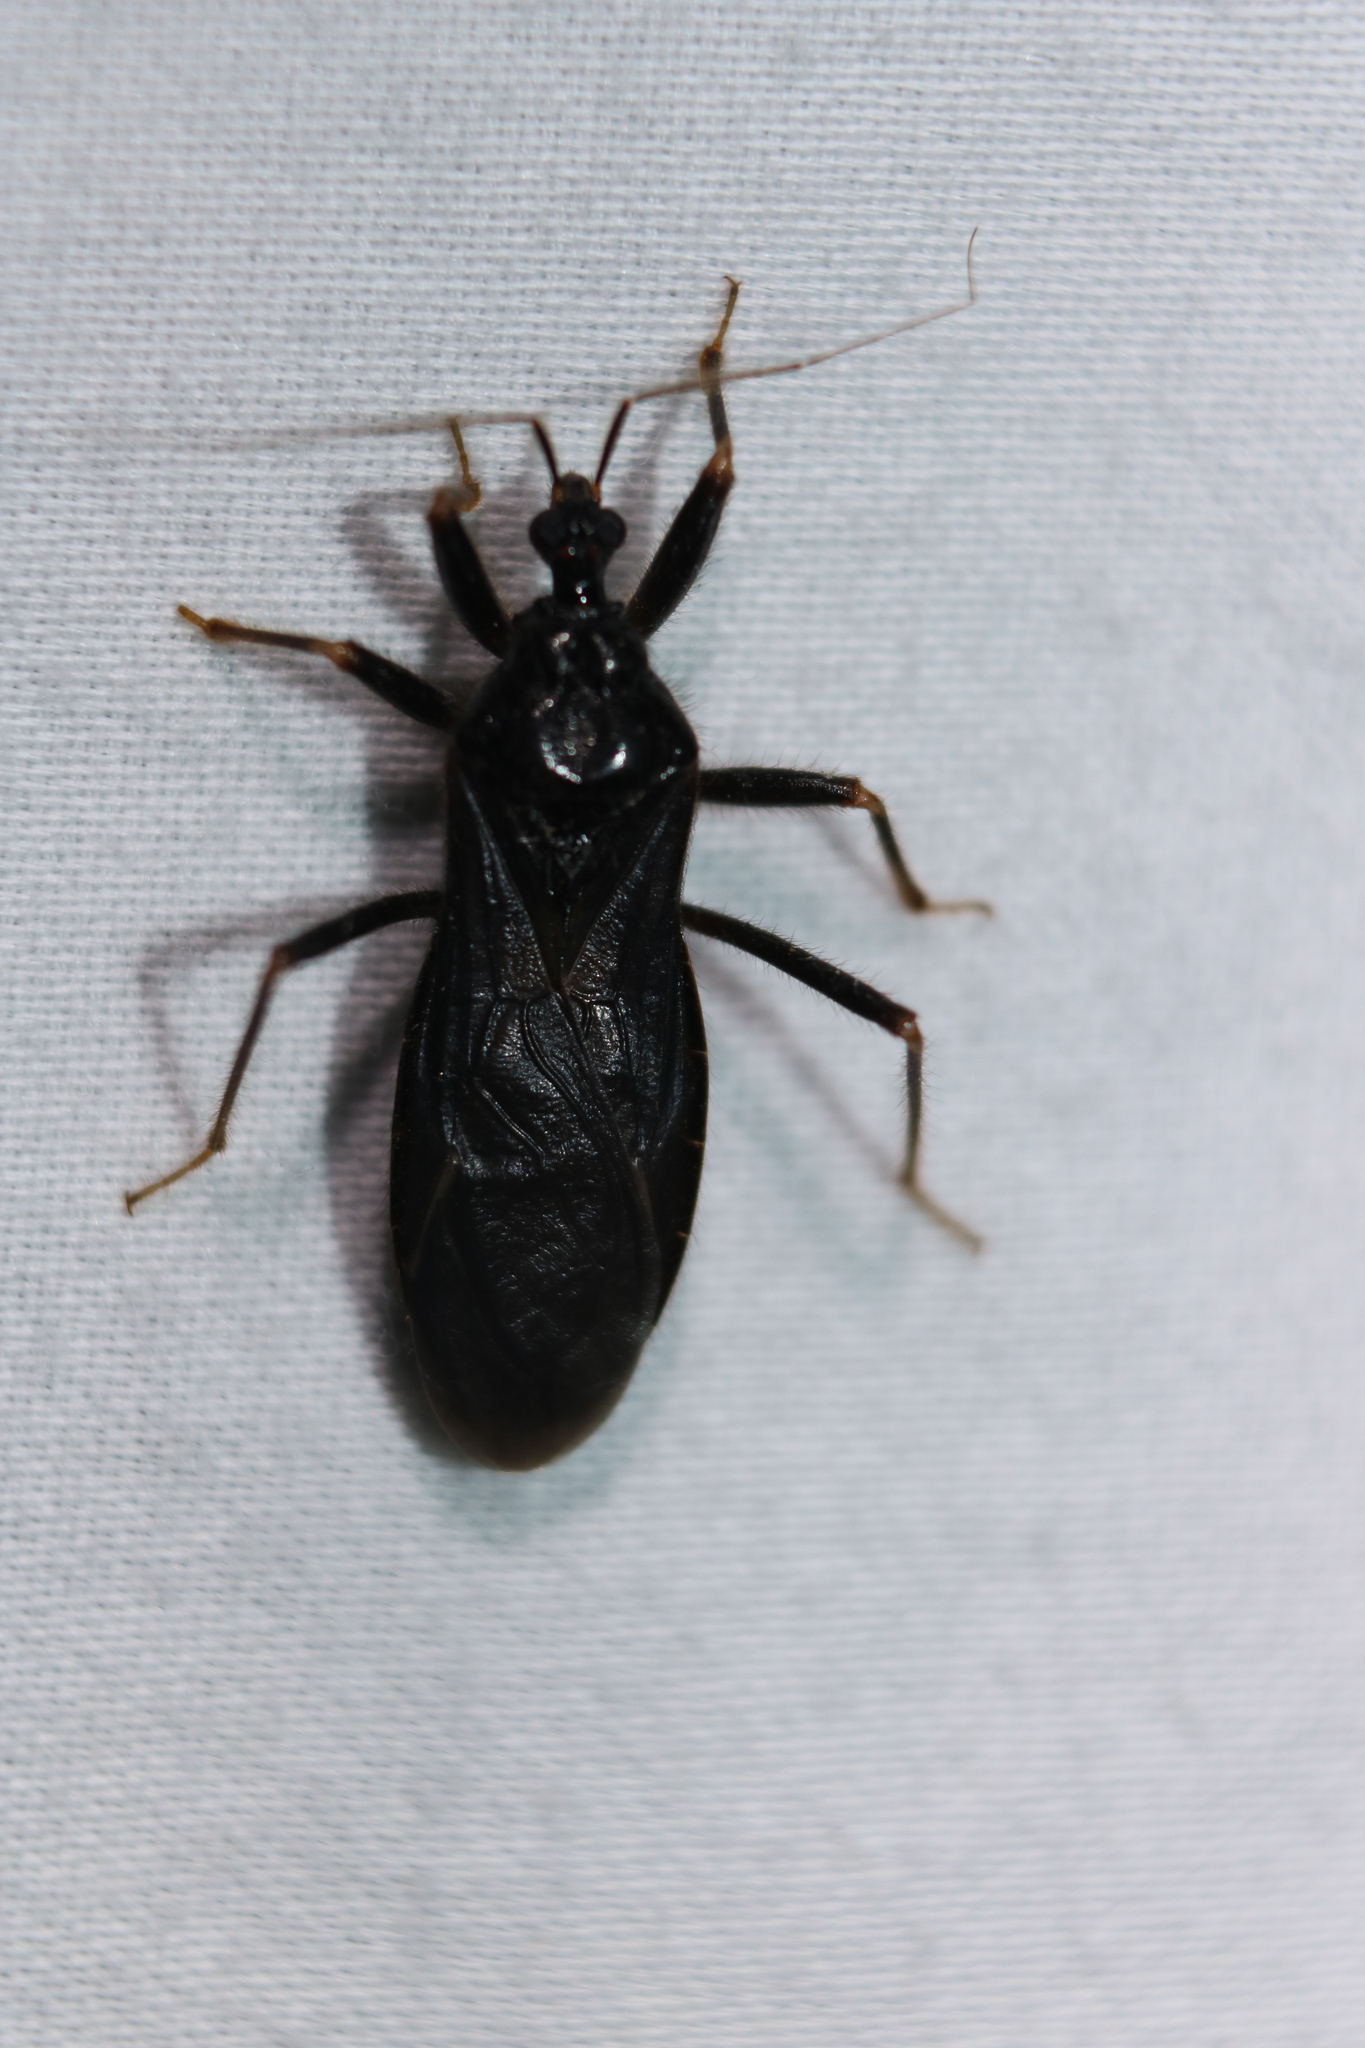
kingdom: Animalia
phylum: Arthropoda
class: Insecta
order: Hemiptera
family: Reduviidae
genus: Reduvius
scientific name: Reduvius personatus
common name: Masked hunter
